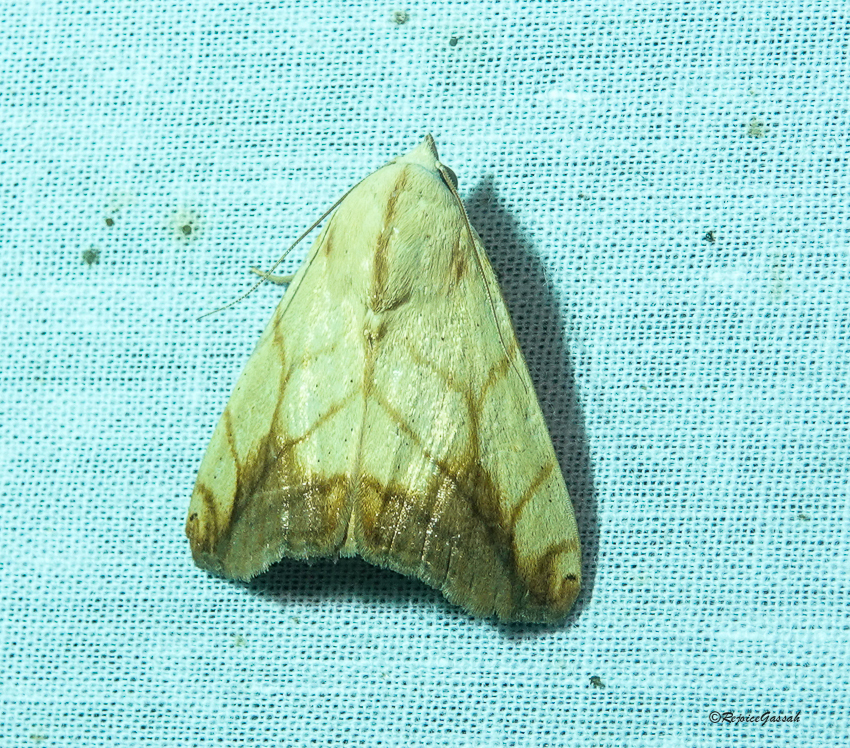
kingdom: Animalia
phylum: Arthropoda
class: Insecta
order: Lepidoptera
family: Nolidae
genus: Xanthodes
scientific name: Xanthodes transversa
